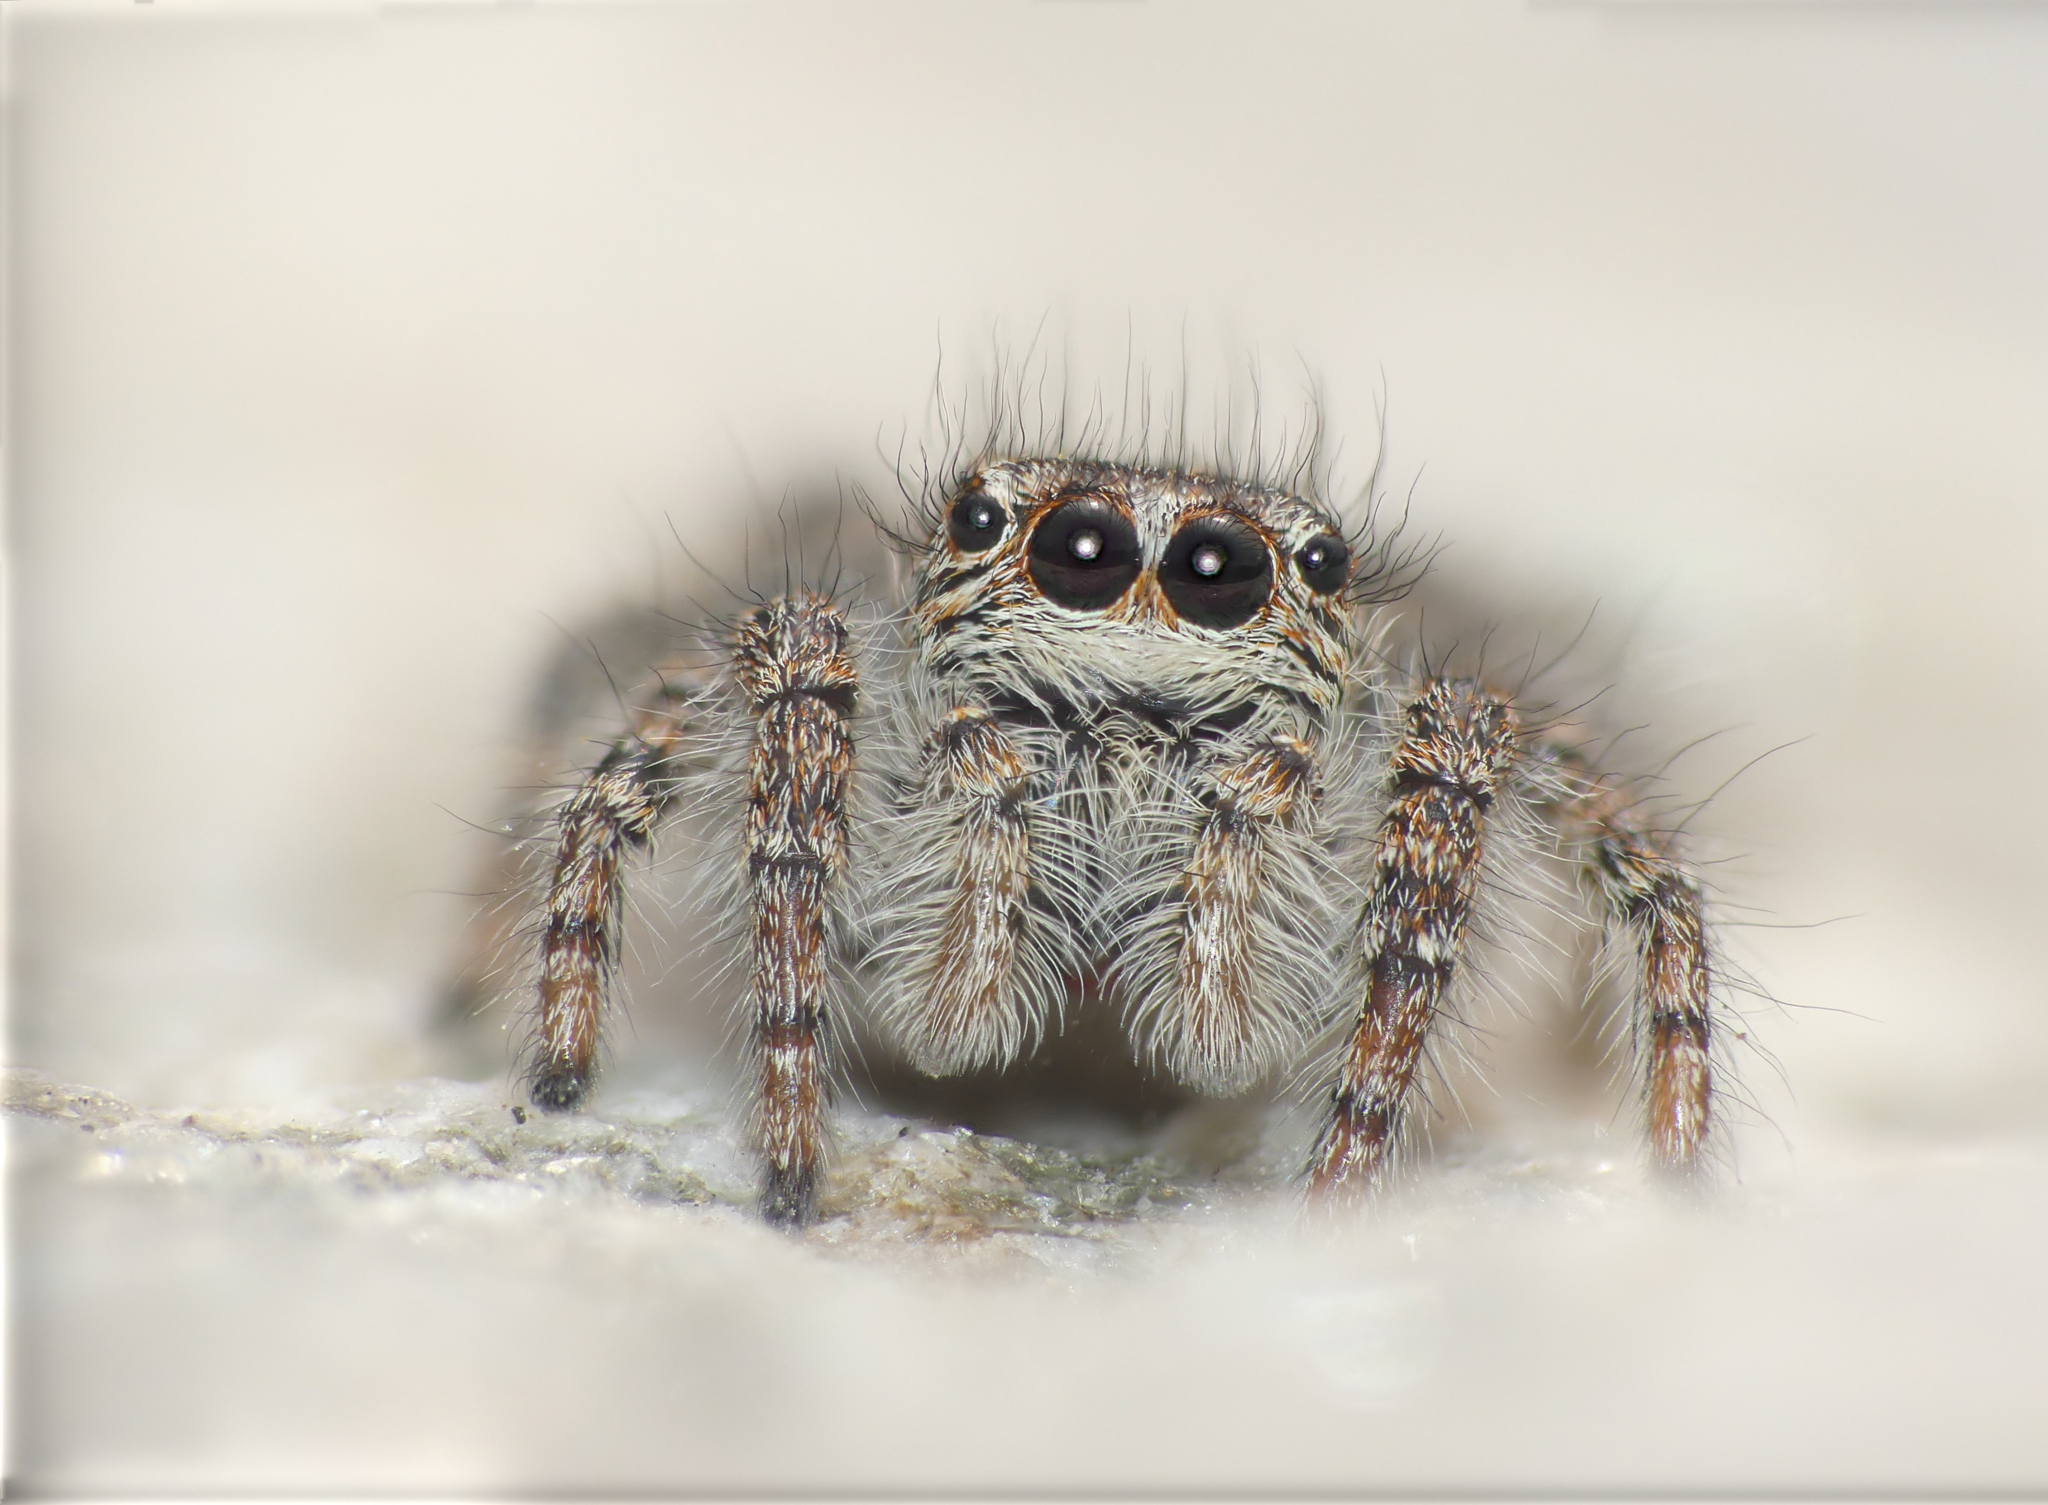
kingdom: Animalia
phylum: Arthropoda
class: Arachnida
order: Araneae
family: Salticidae
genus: Philaeus
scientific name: Philaeus chrysops
